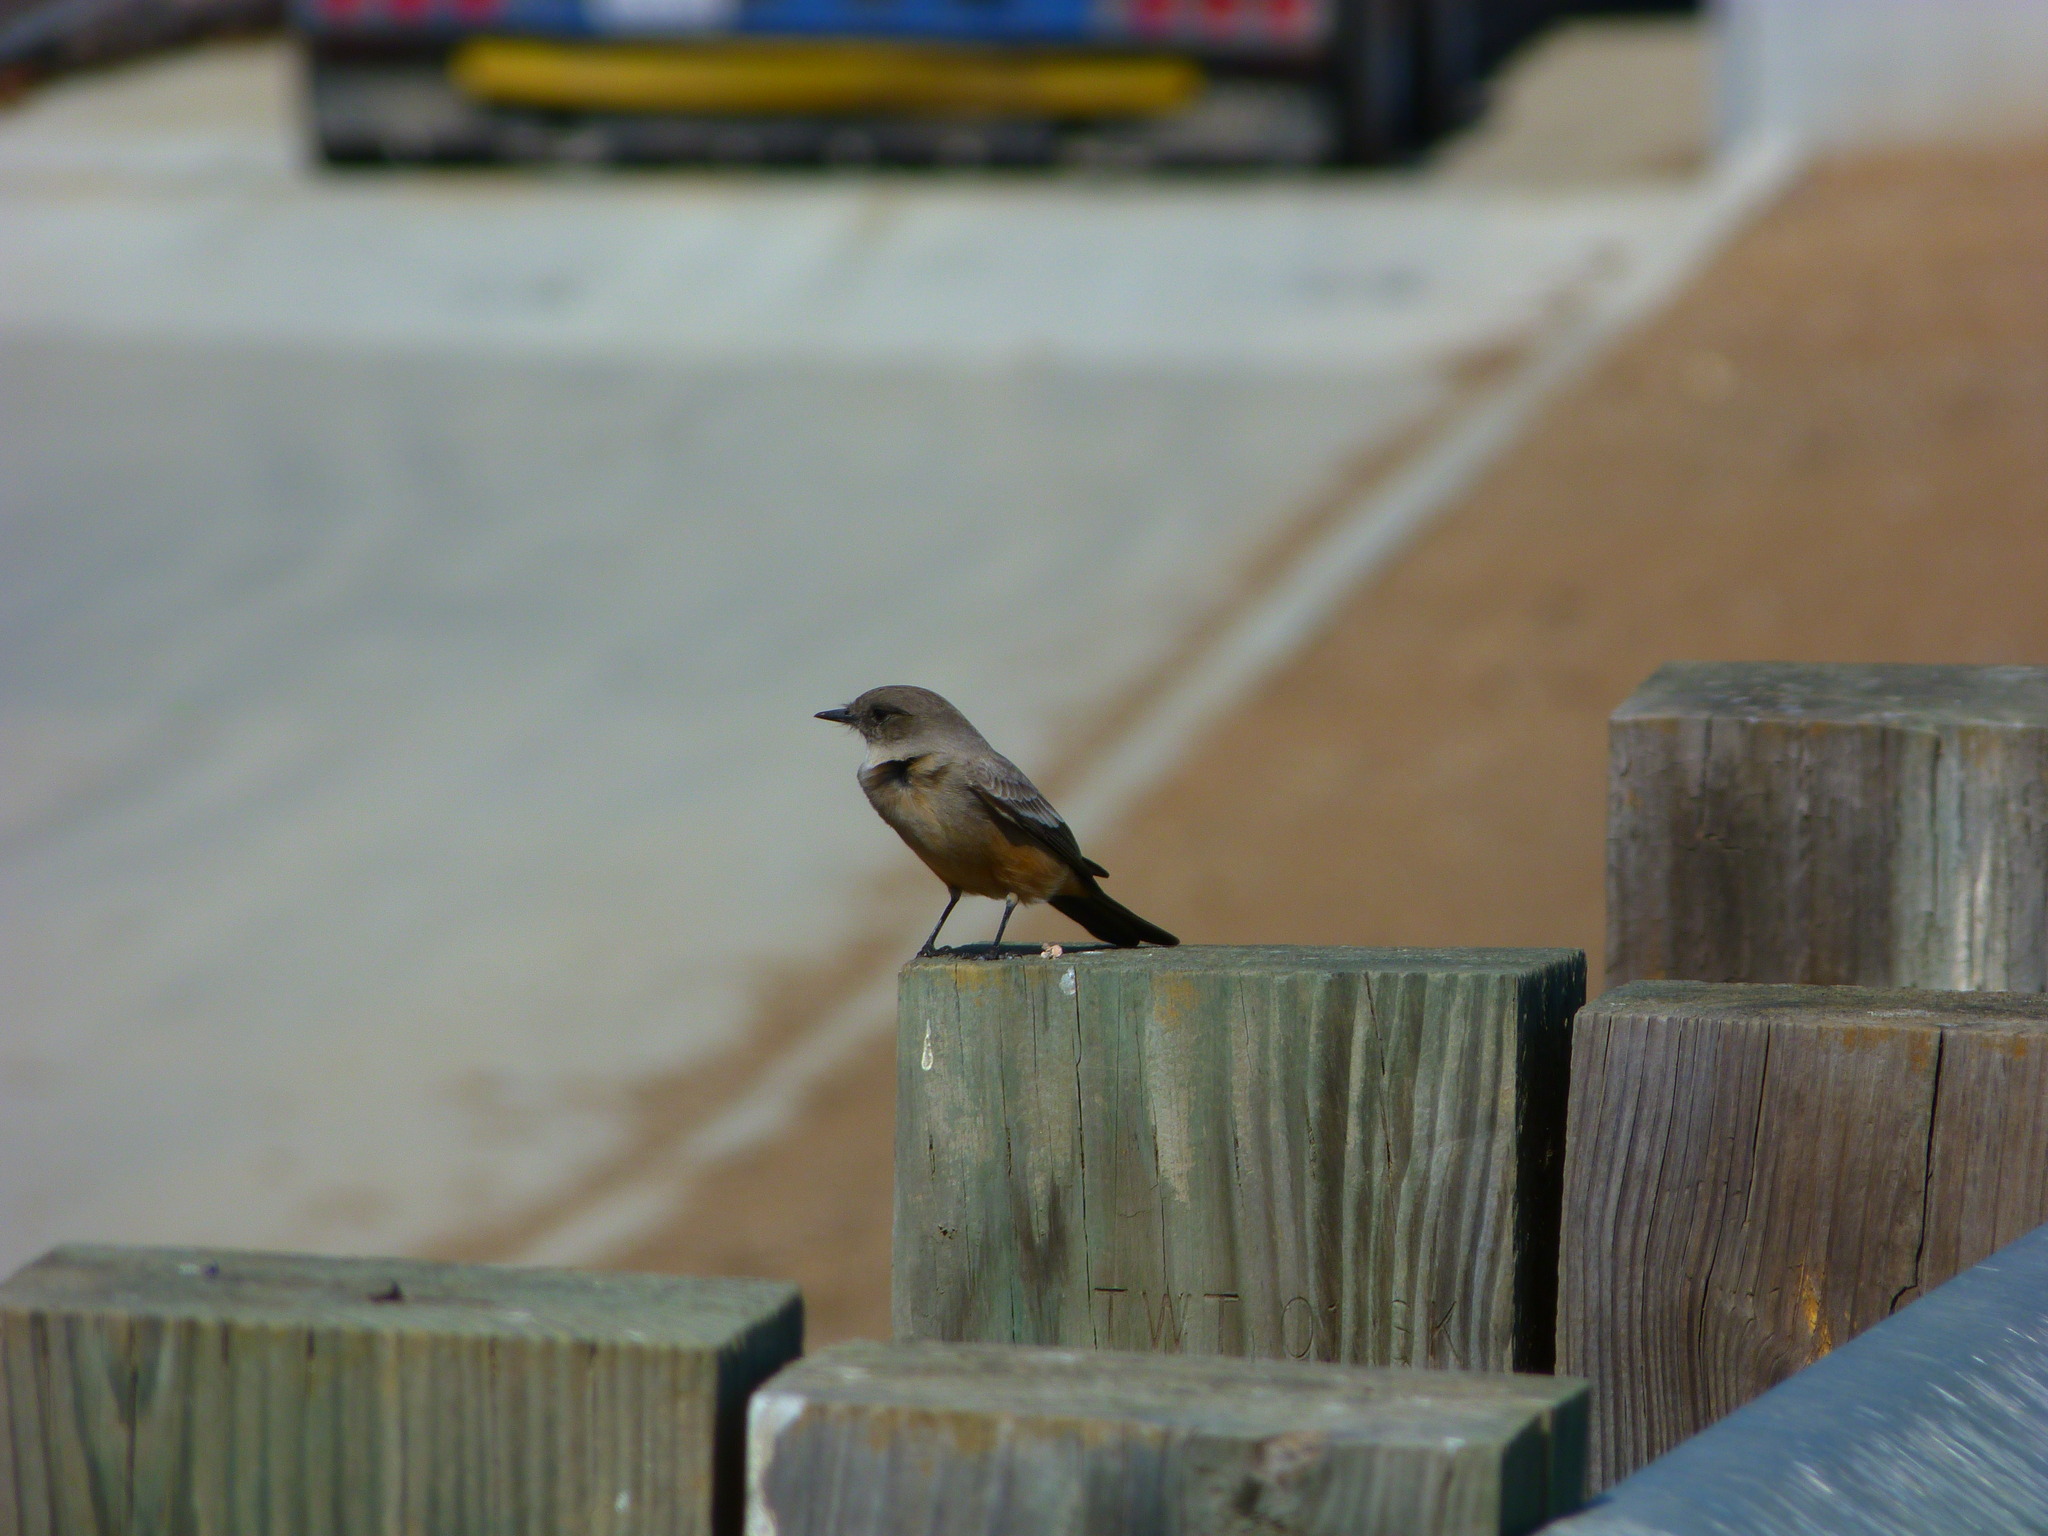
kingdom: Animalia
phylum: Chordata
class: Aves
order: Passeriformes
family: Tyrannidae
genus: Sayornis
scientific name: Sayornis saya
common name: Say's phoebe
